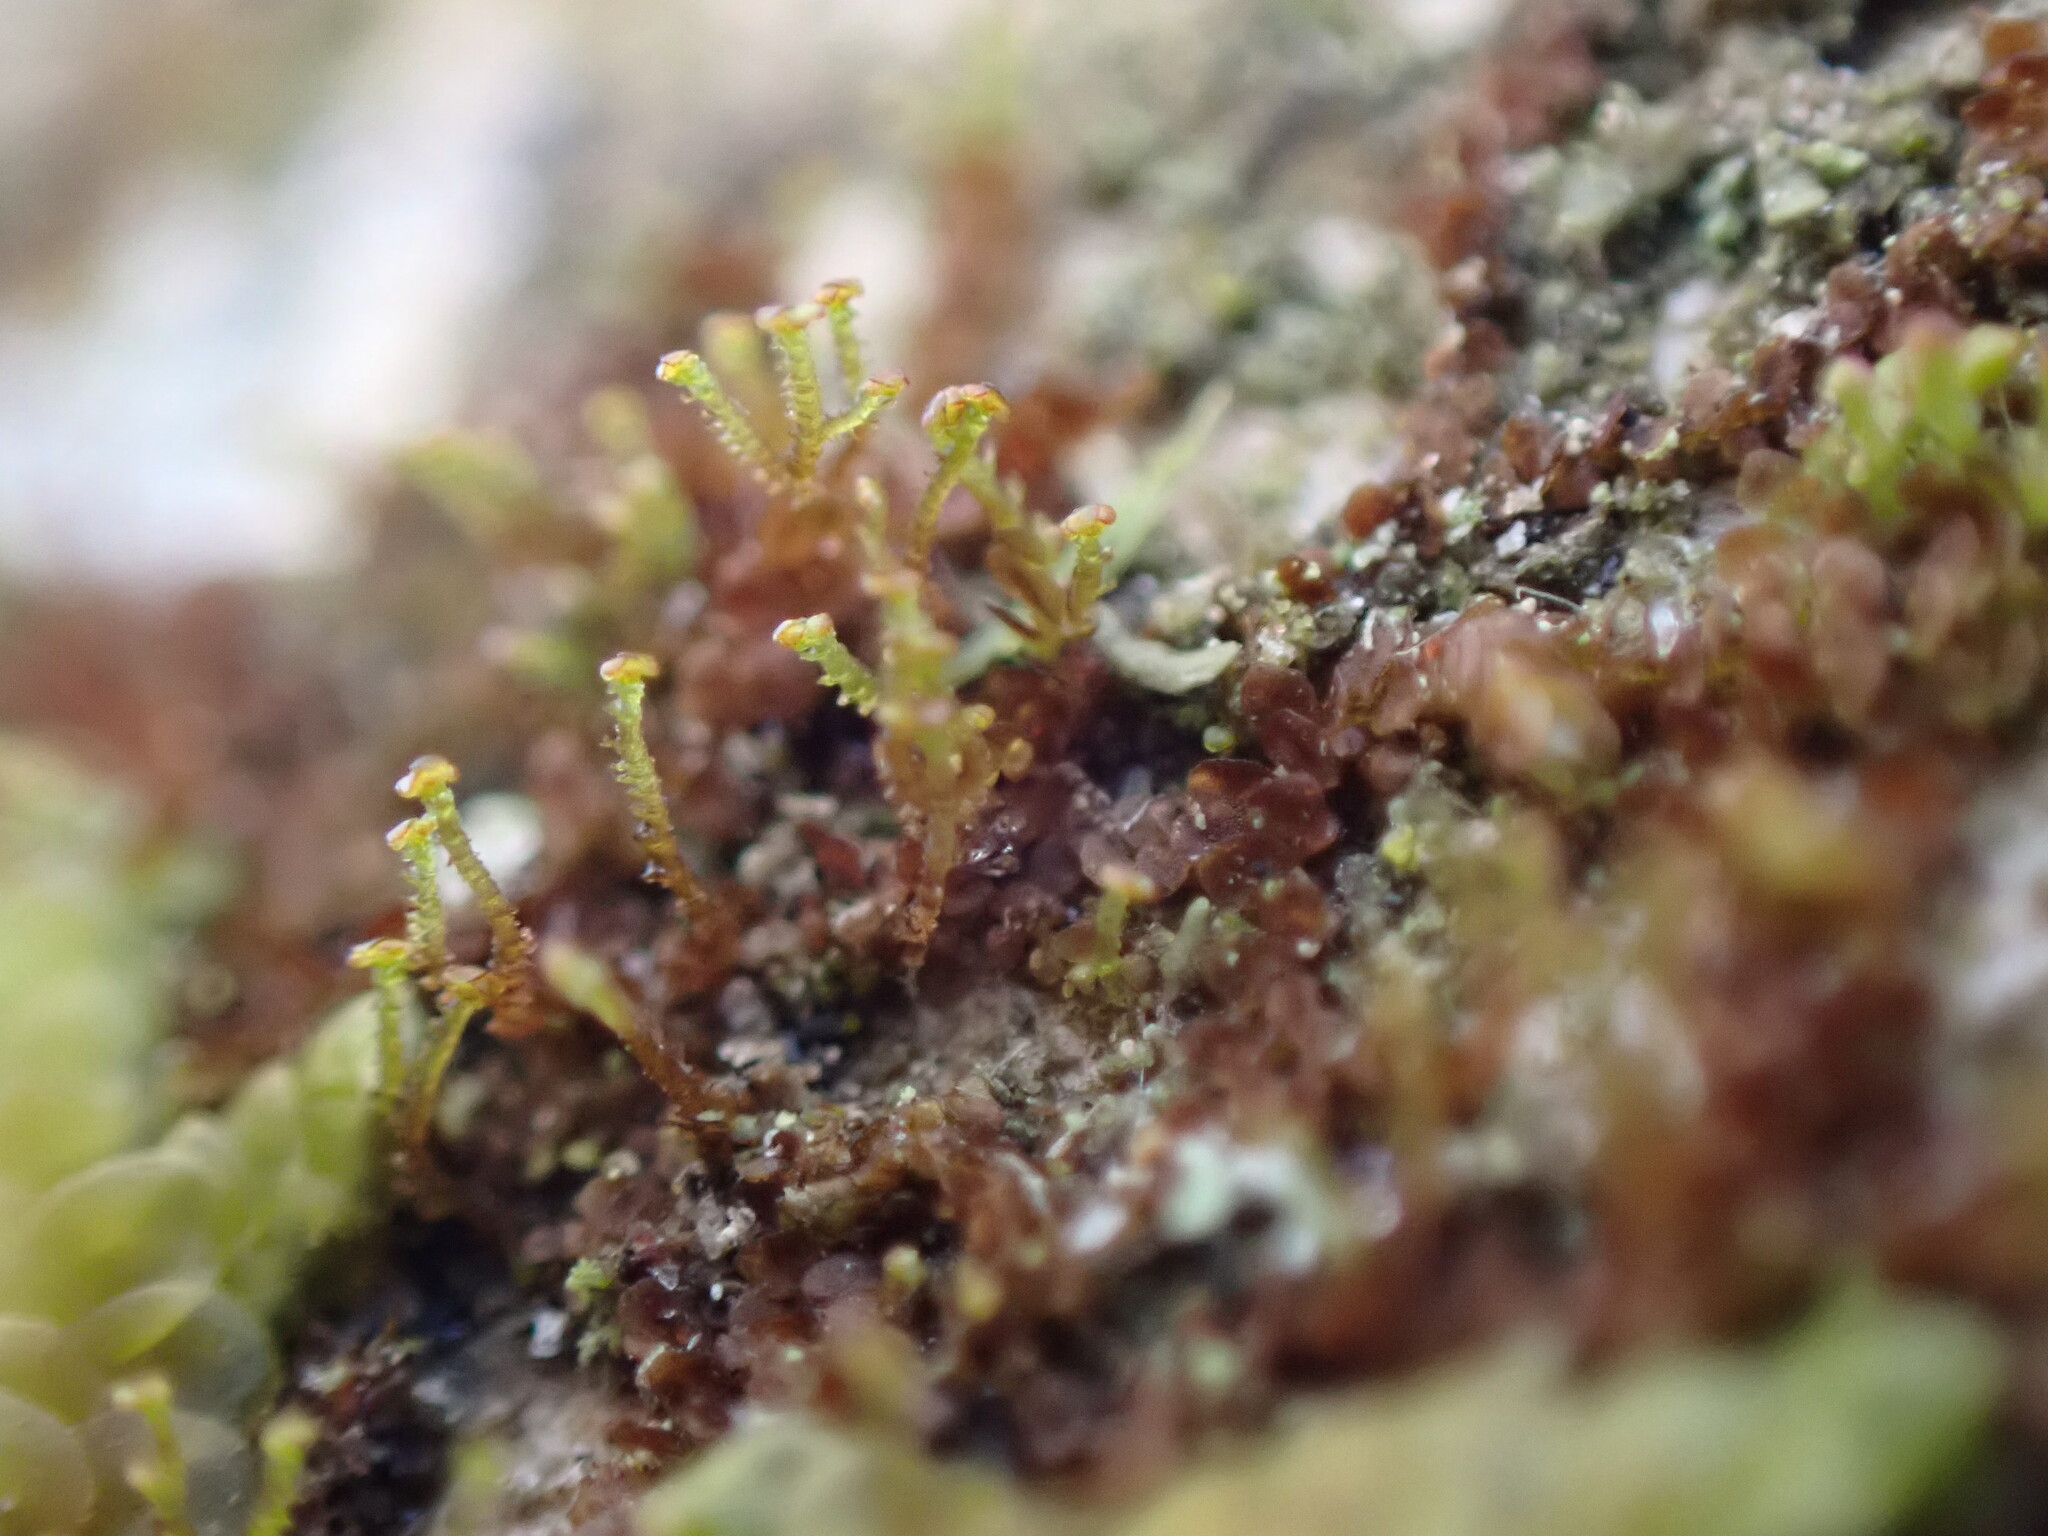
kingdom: Plantae
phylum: Marchantiophyta
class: Jungermanniopsida
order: Porellales
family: Frullaniaceae
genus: Frullania
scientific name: Frullania bolanderi
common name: Bolander s scalewort
